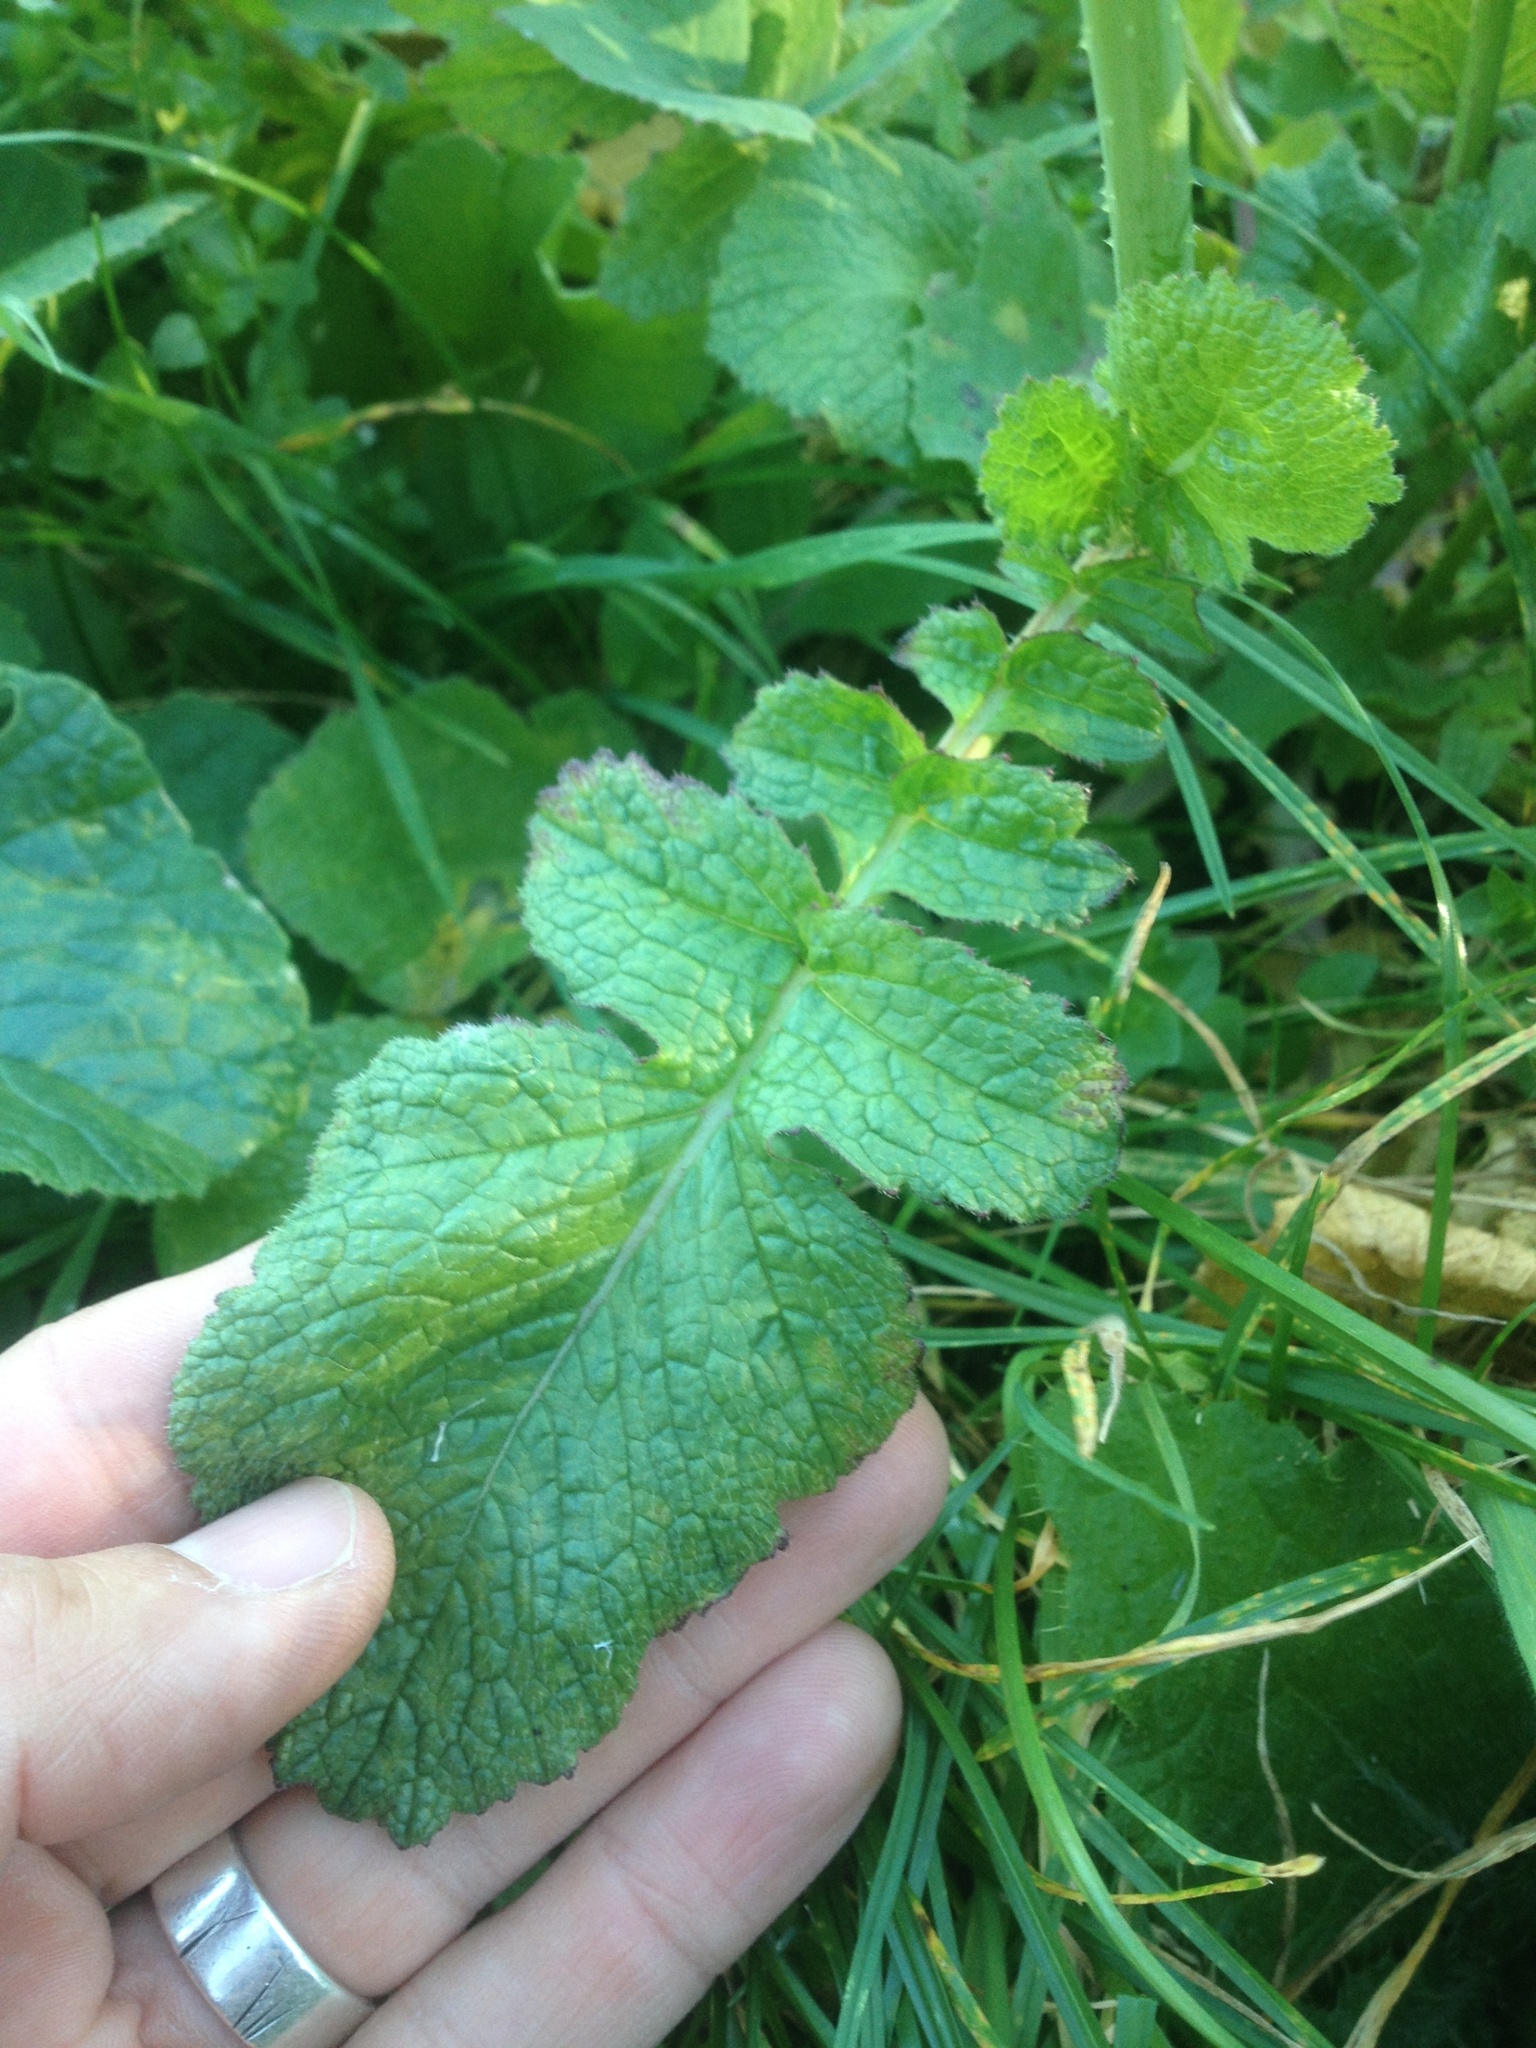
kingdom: Plantae
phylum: Tracheophyta
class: Magnoliopsida
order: Brassicales
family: Brassicaceae
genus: Raphanus
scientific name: Raphanus raphanistrum
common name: Wild radish
